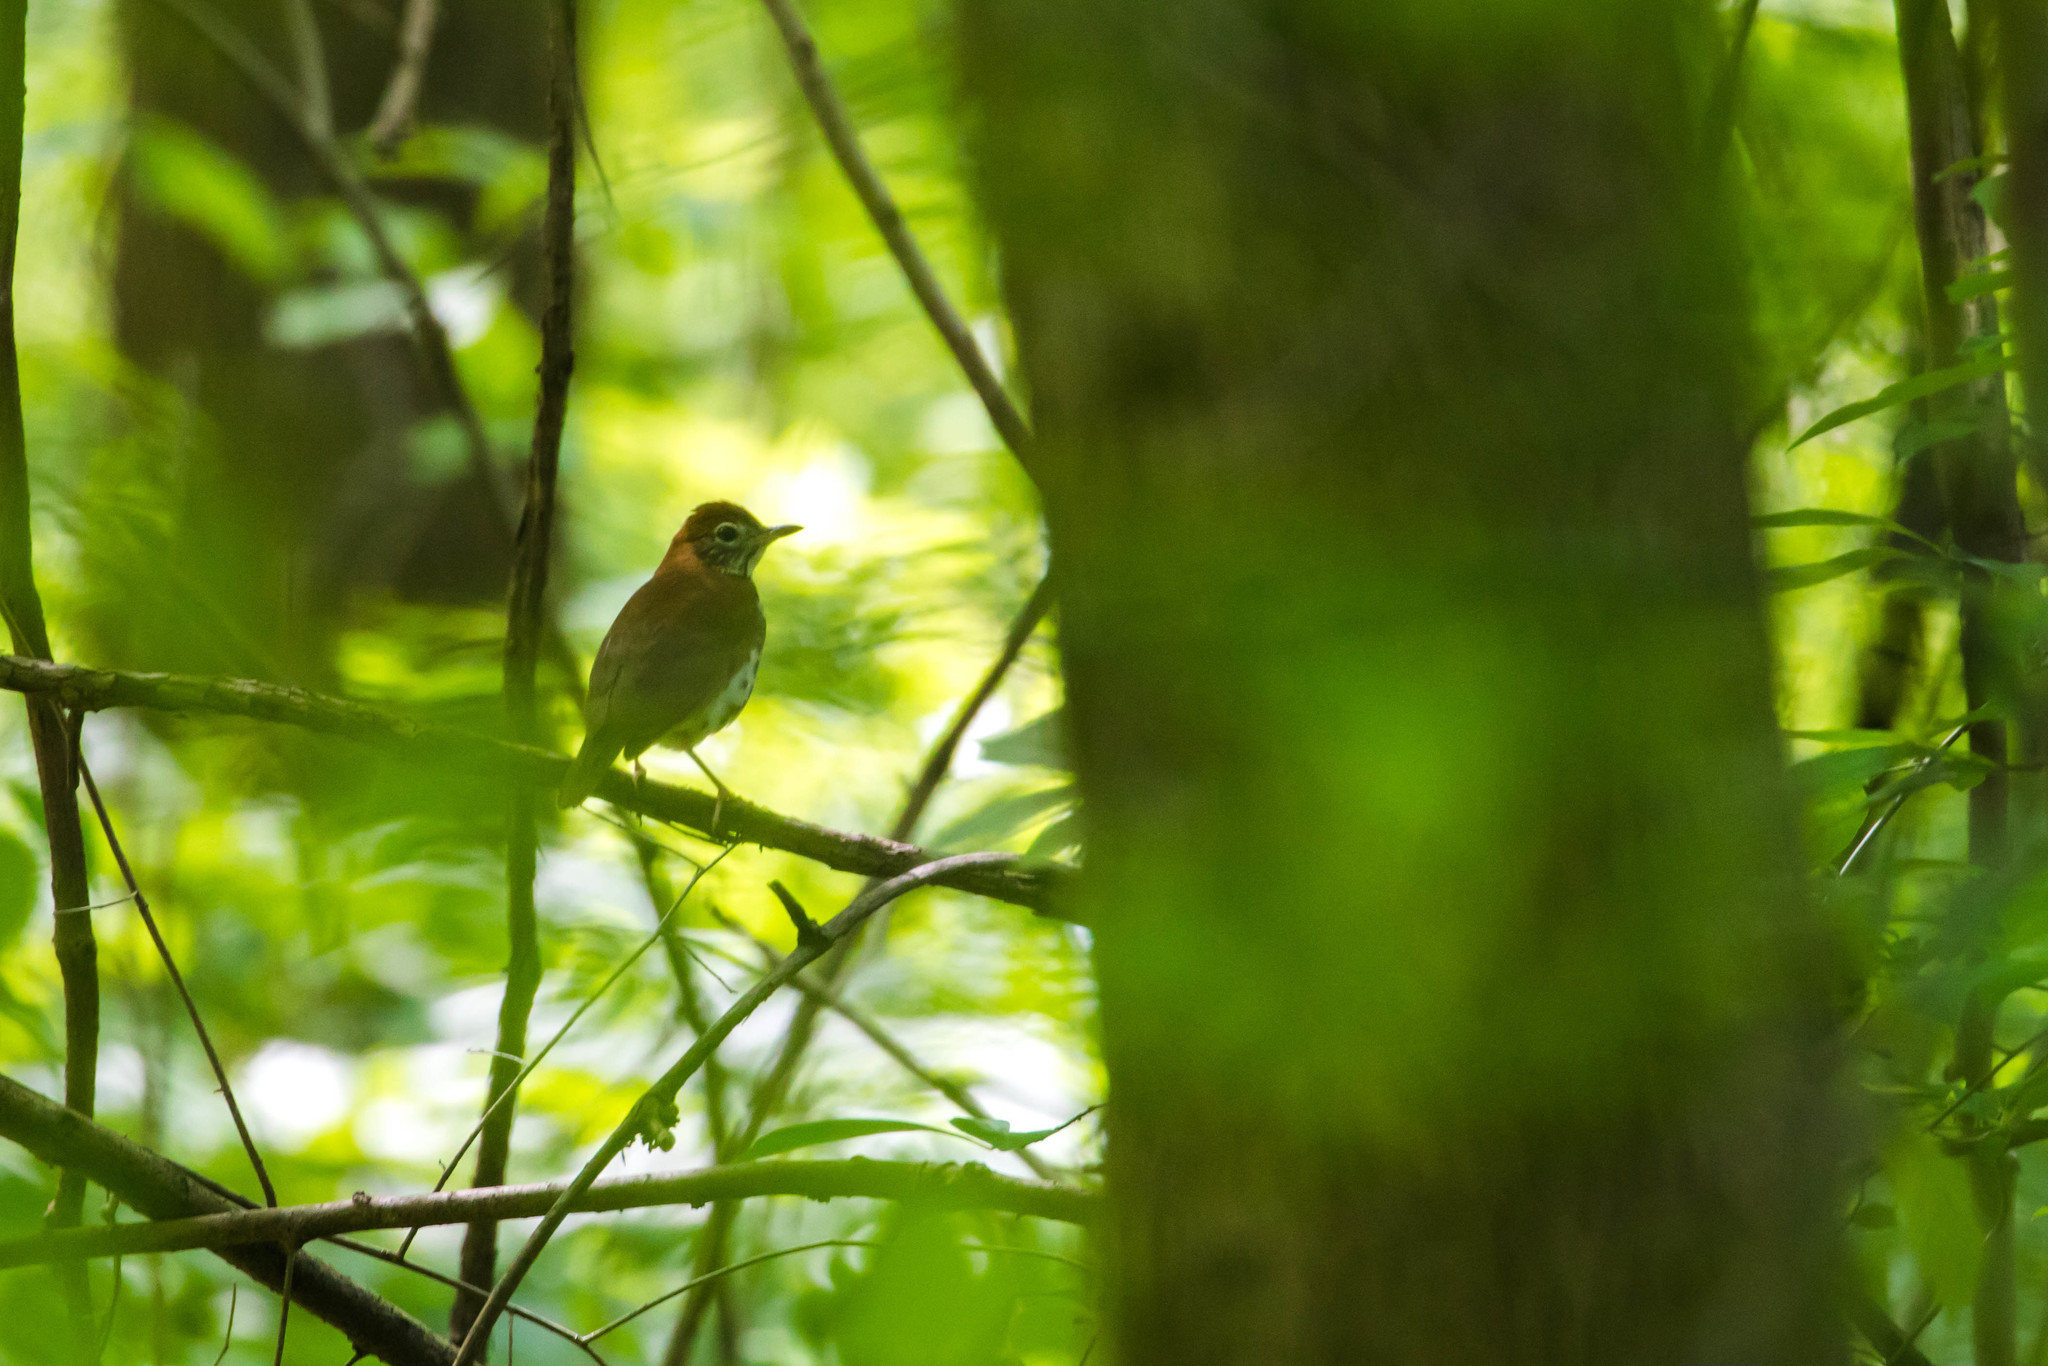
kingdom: Animalia
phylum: Chordata
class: Aves
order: Passeriformes
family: Turdidae
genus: Hylocichla
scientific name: Hylocichla mustelina
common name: Wood thrush
